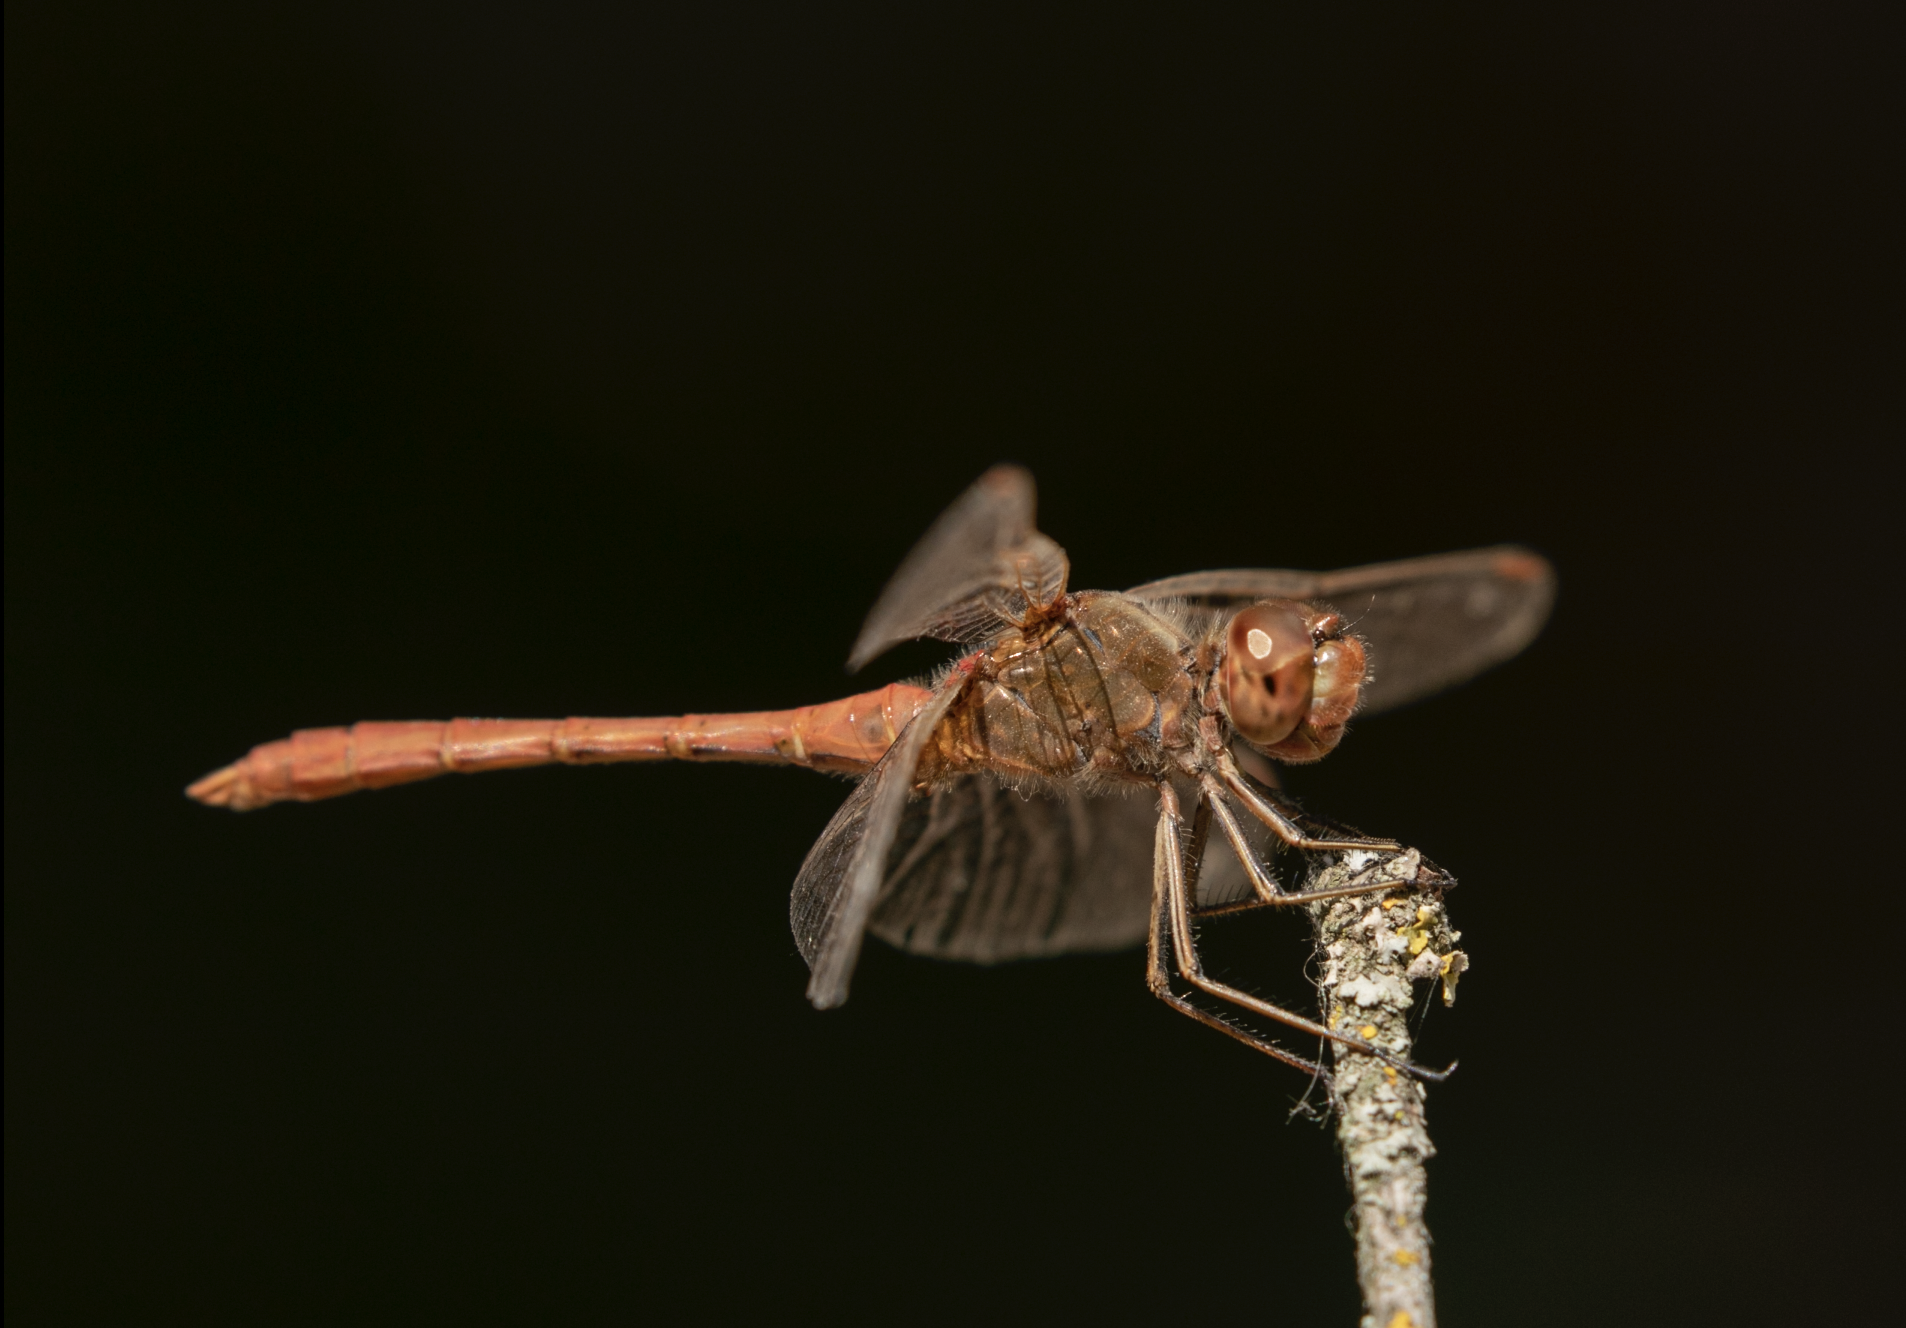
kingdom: Animalia
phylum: Arthropoda
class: Insecta
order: Odonata
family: Libellulidae
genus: Sympetrum
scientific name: Sympetrum meridionale
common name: Southern darter
